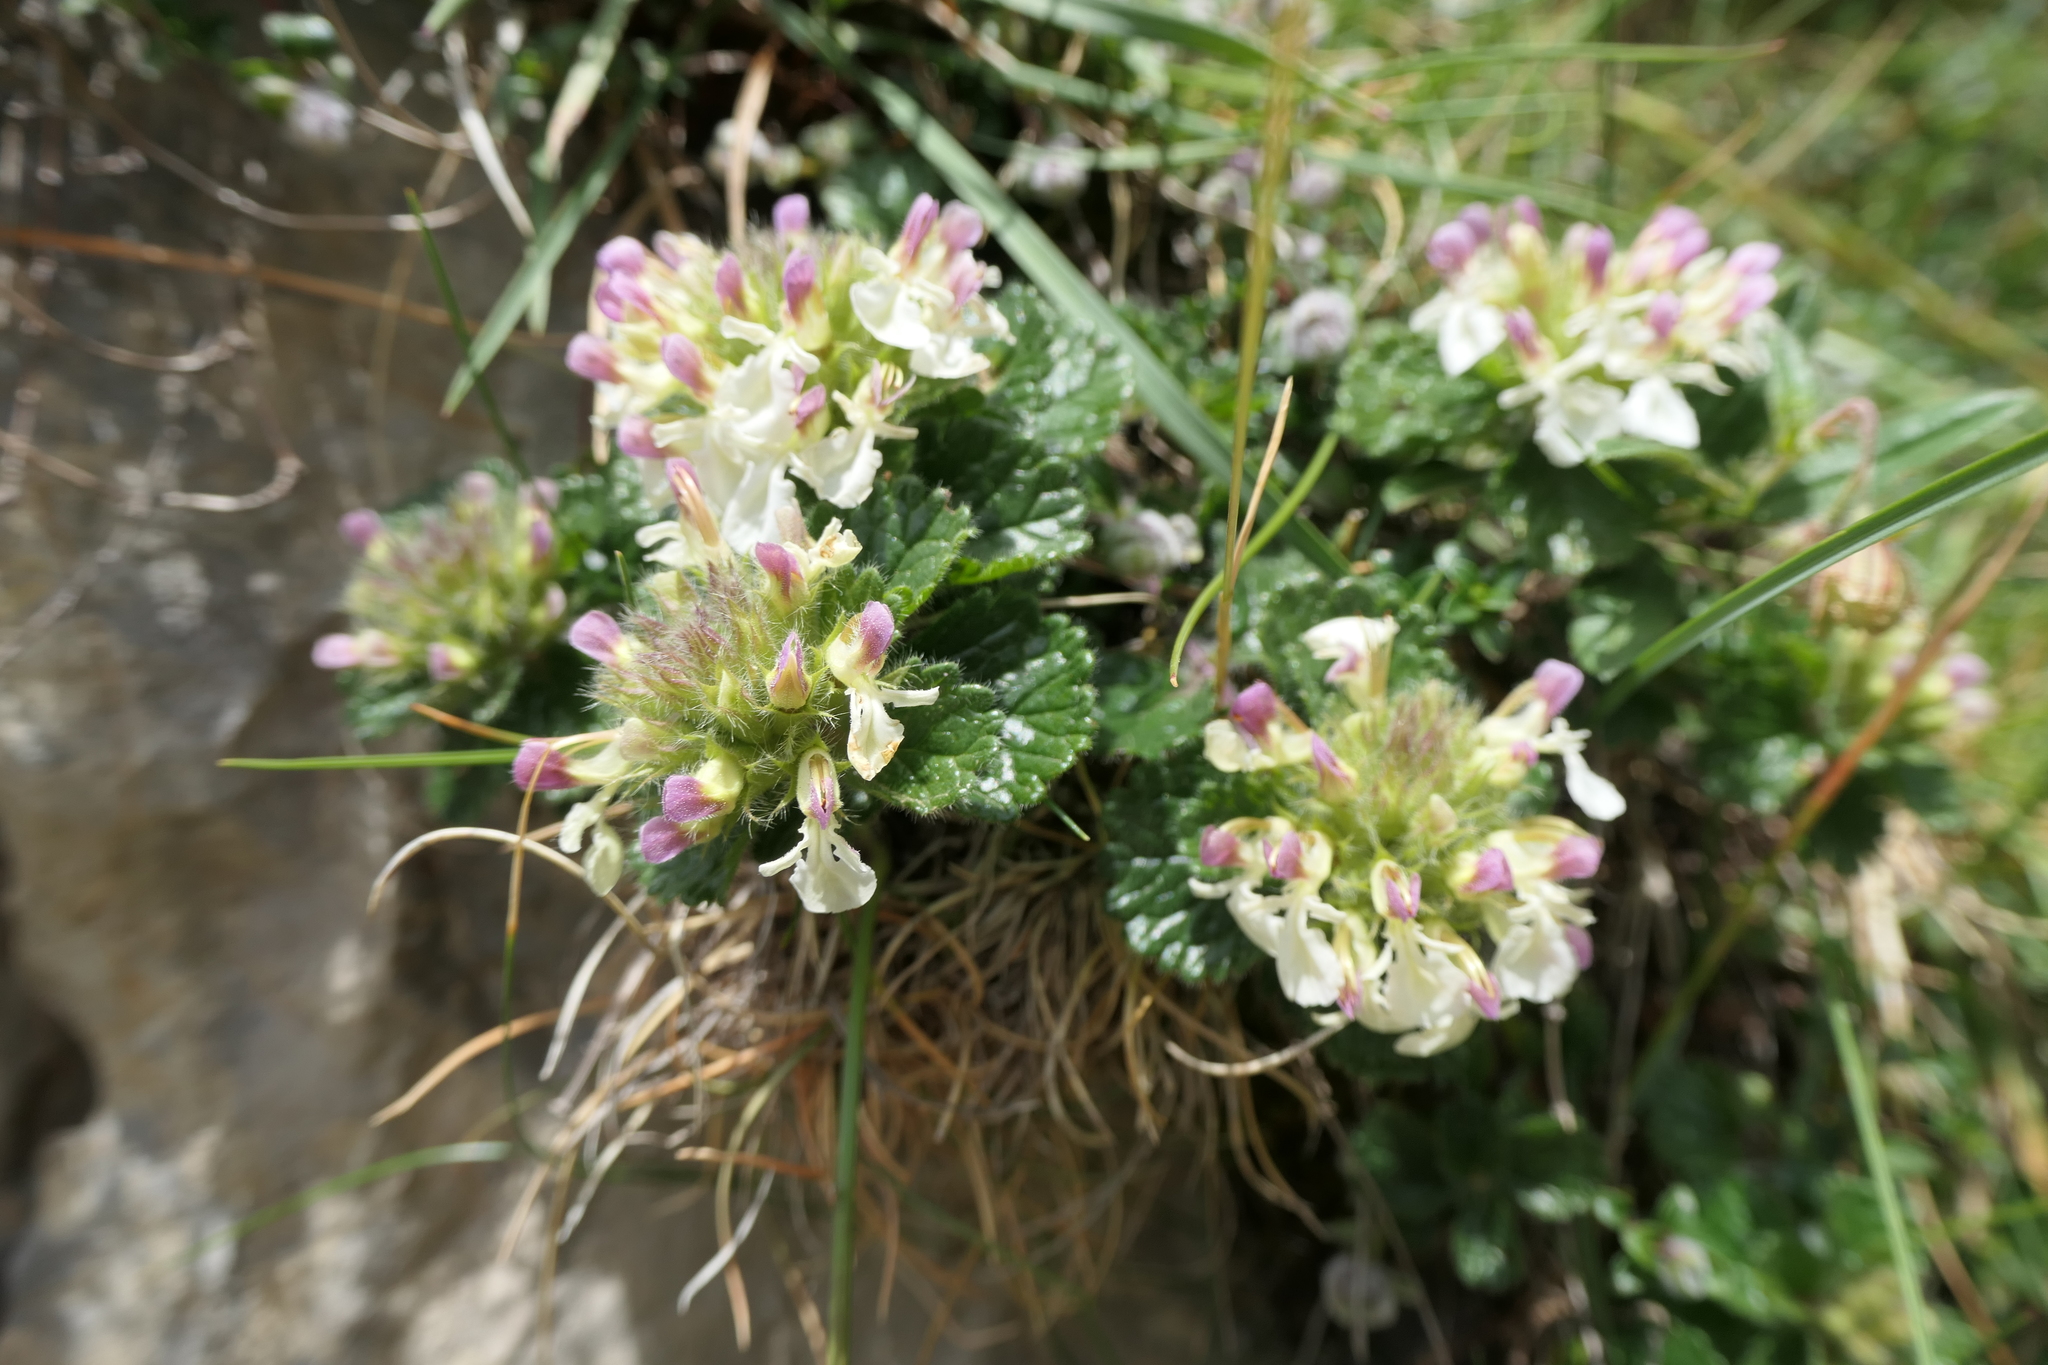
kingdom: Plantae
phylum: Tracheophyta
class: Magnoliopsida
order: Lamiales
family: Lamiaceae
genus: Teucrium
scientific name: Teucrium pyrenaicum
